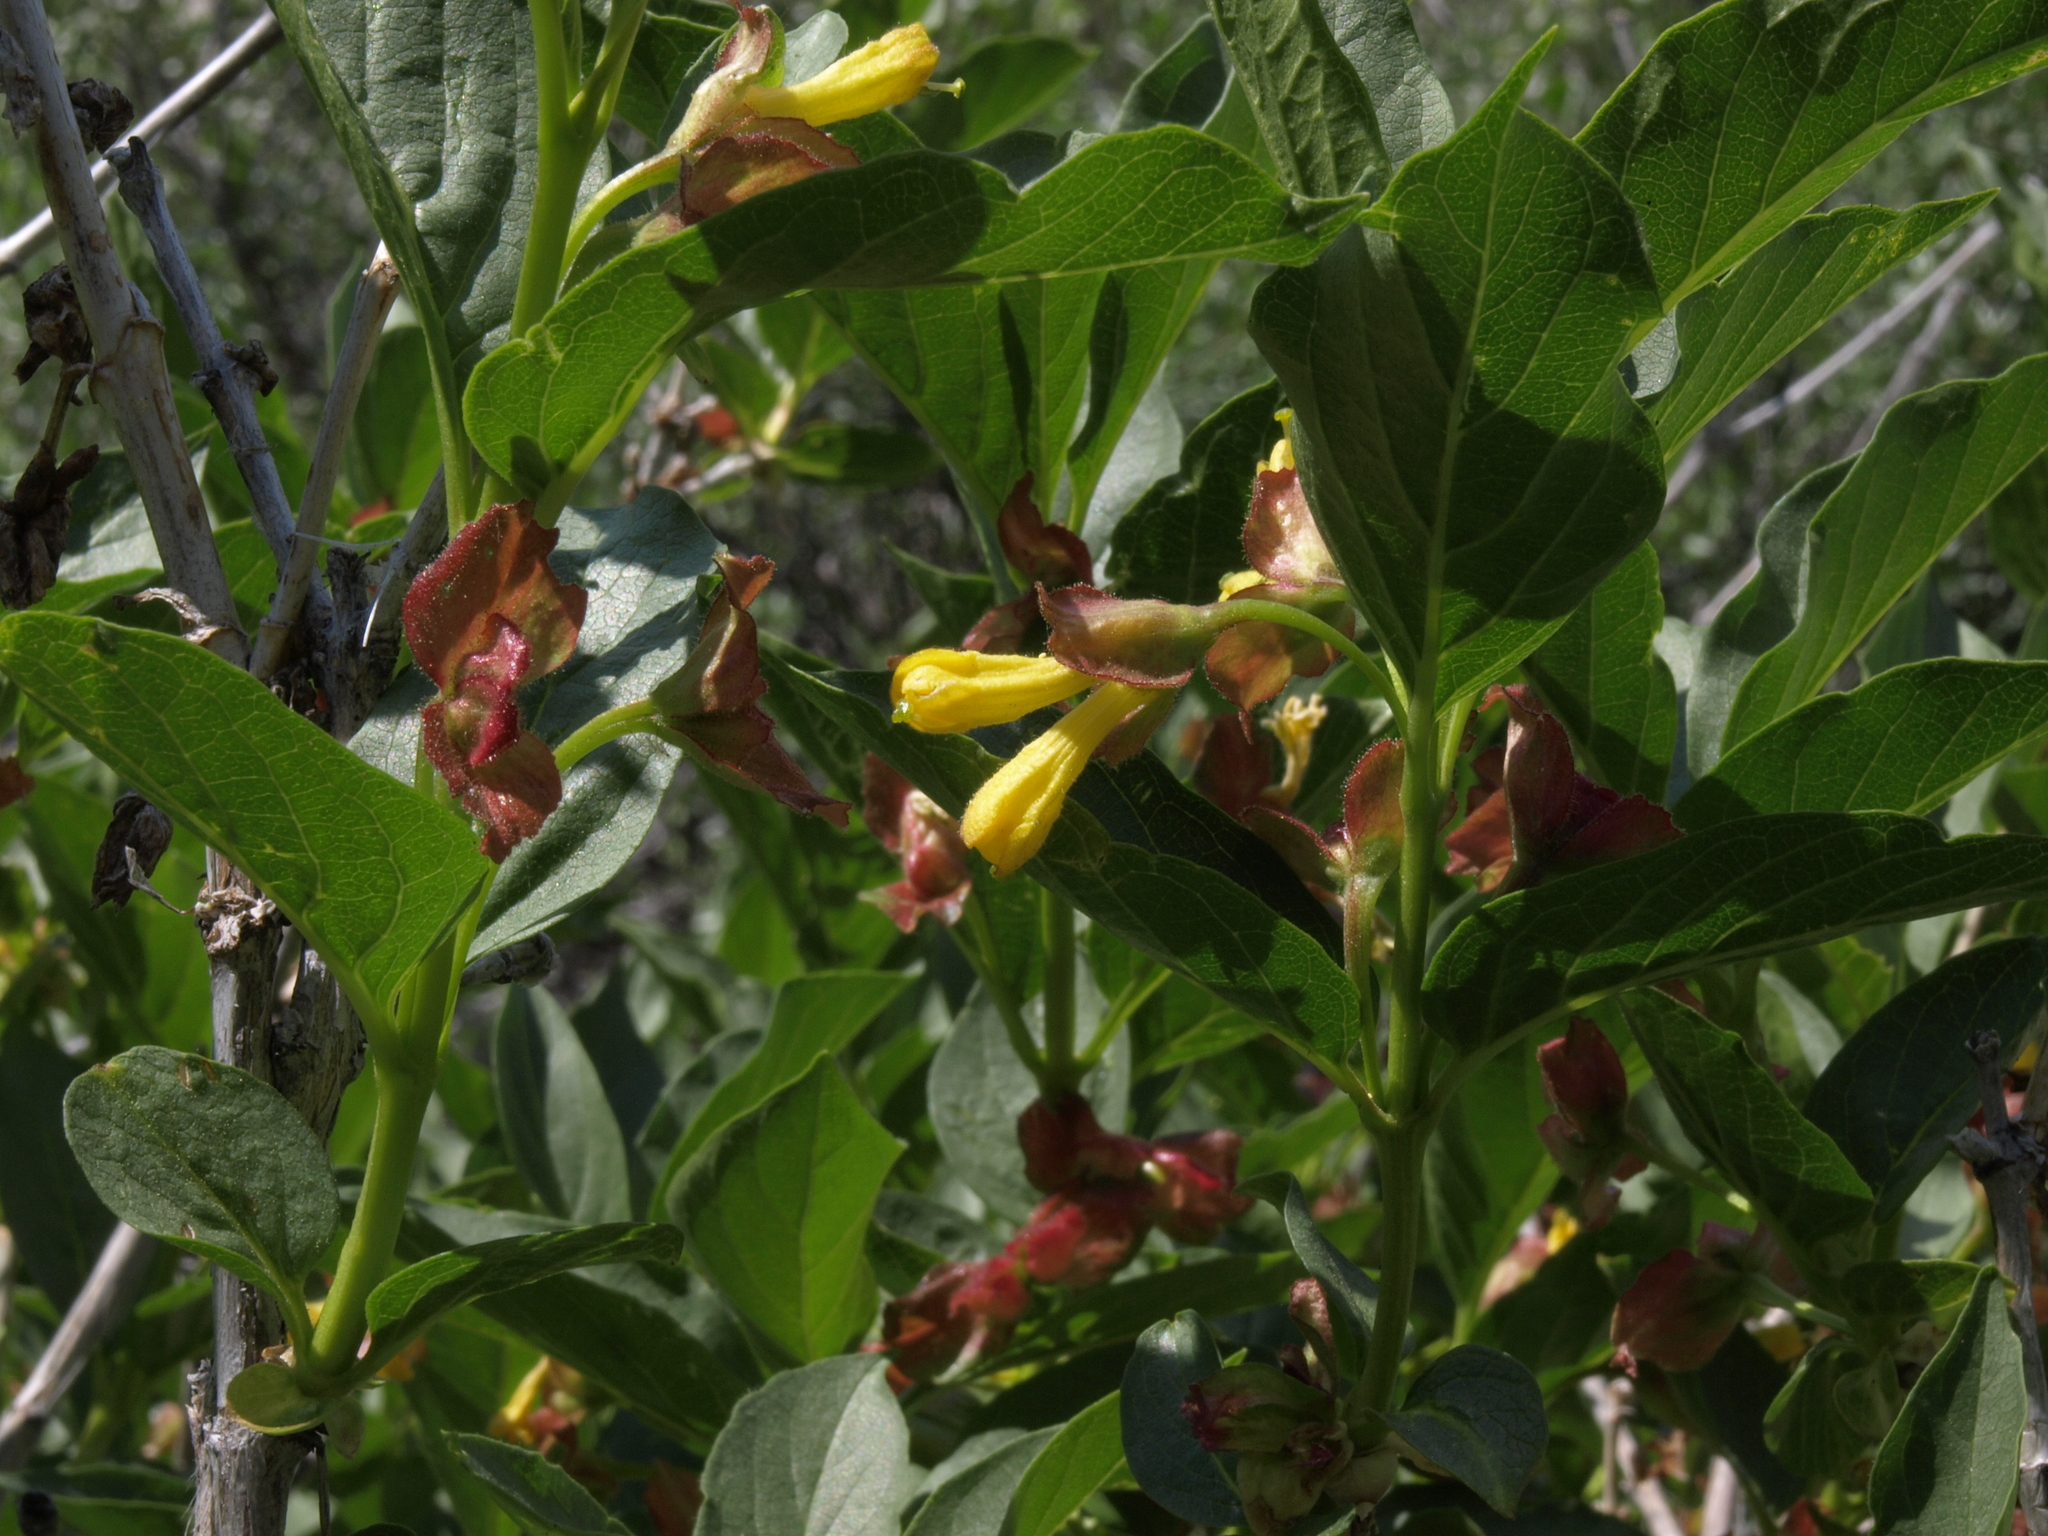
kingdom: Plantae
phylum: Tracheophyta
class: Magnoliopsida
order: Dipsacales
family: Caprifoliaceae
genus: Lonicera
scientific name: Lonicera involucrata
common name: Californian honeysuckle
